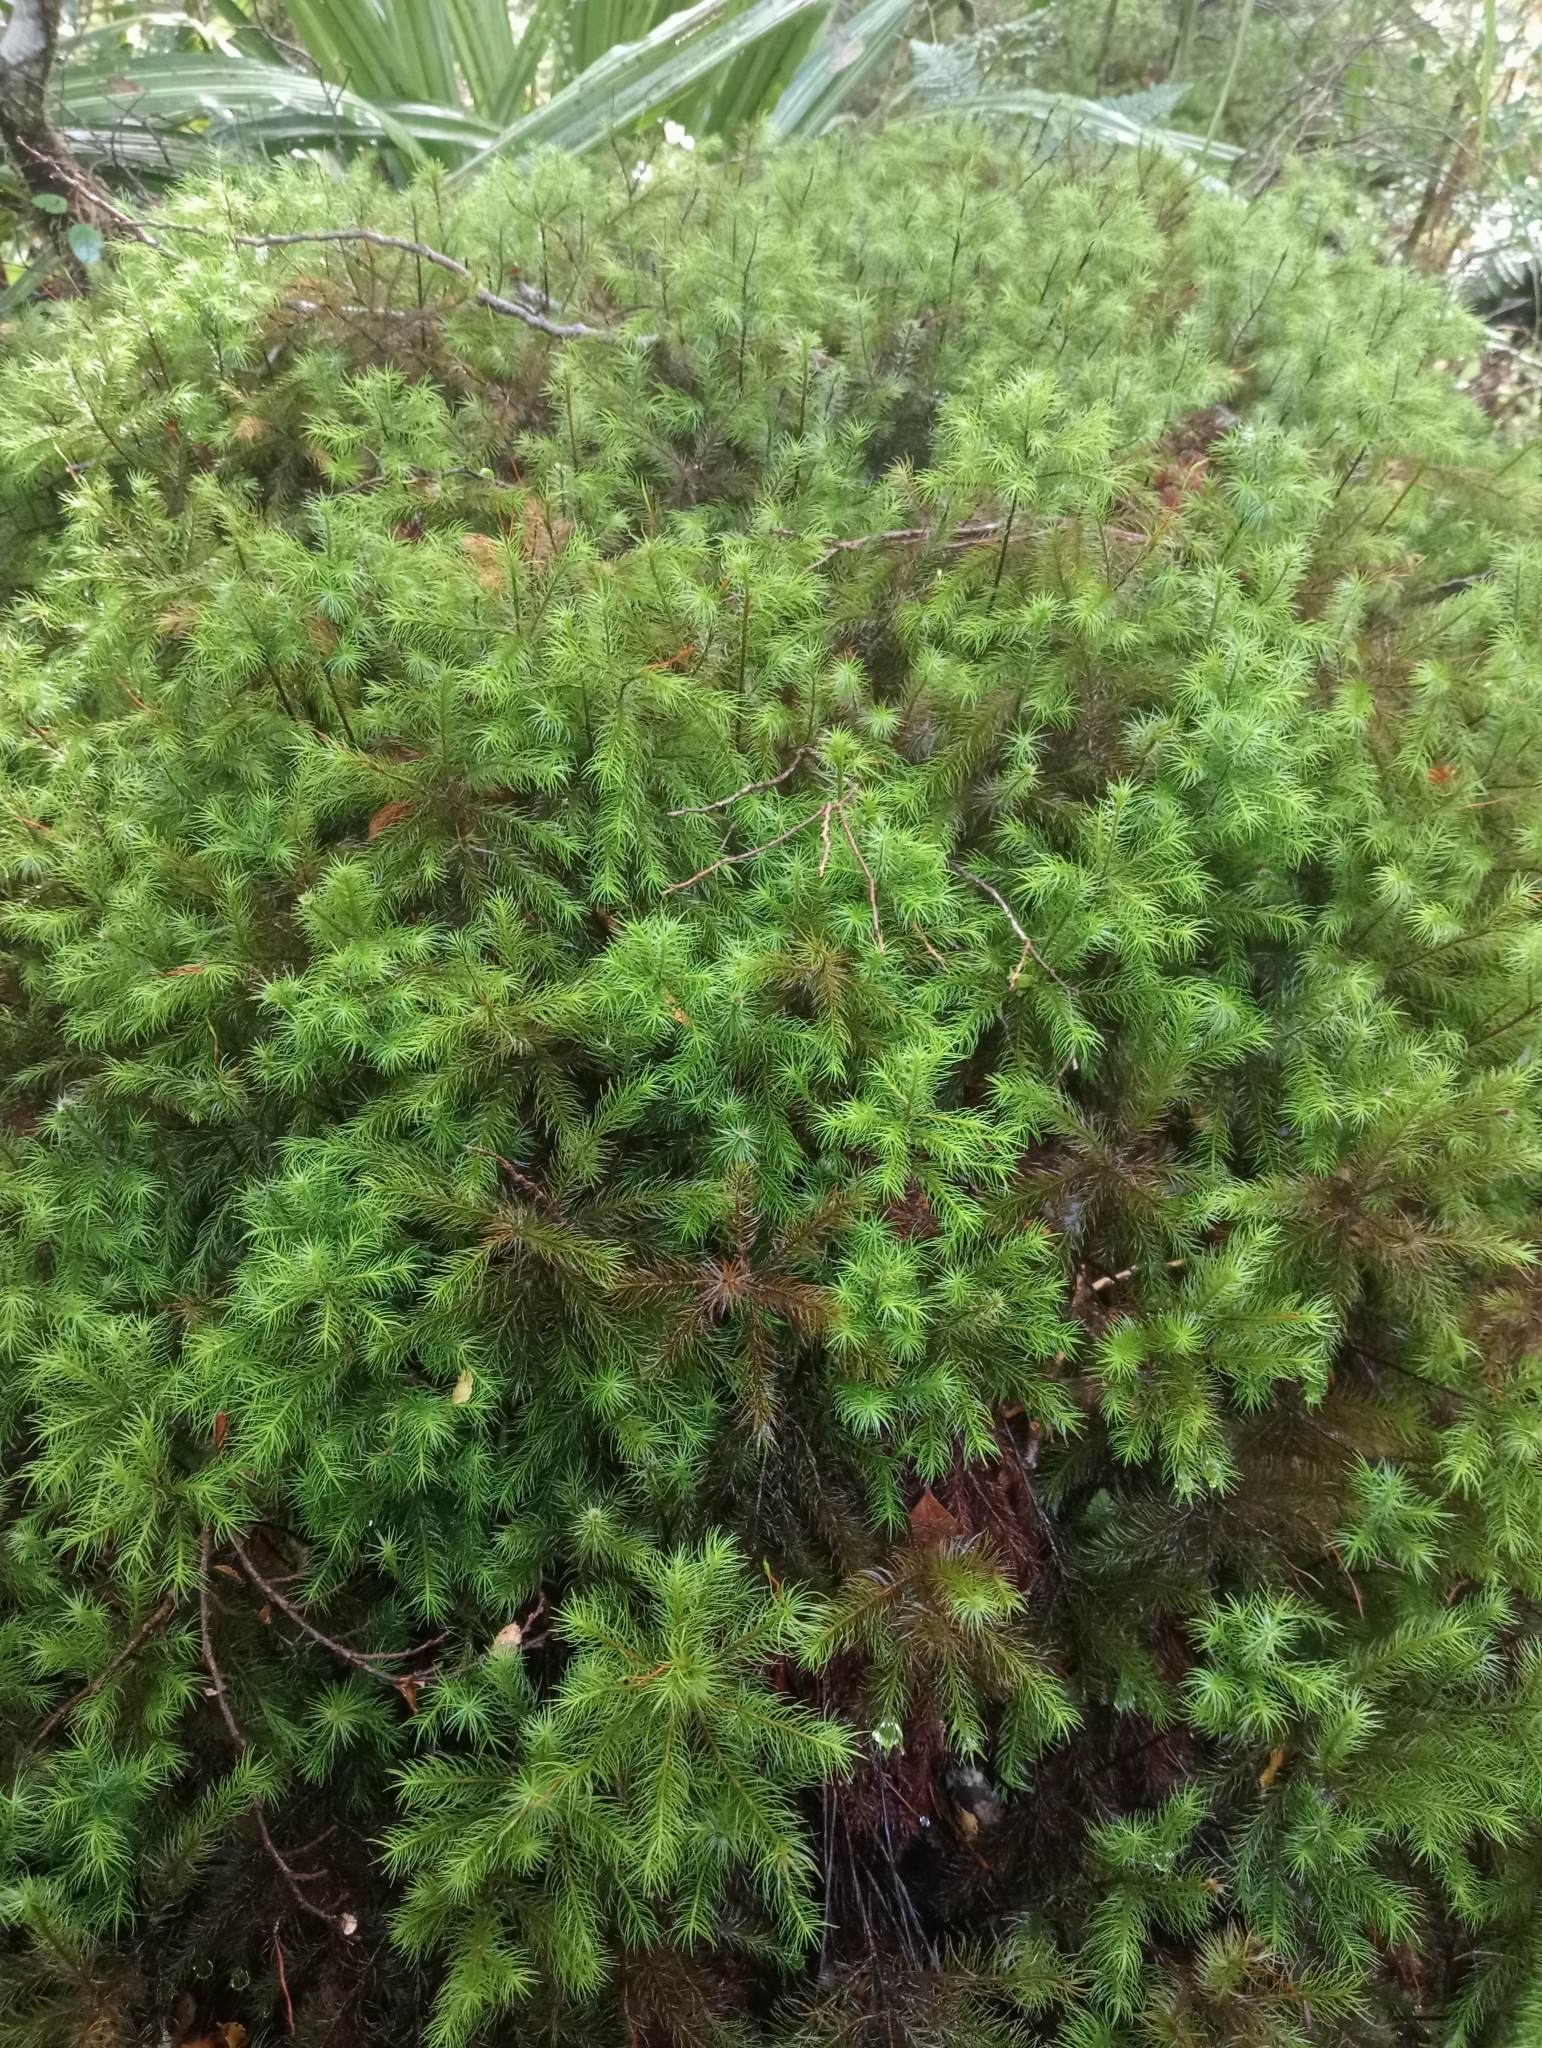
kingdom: Plantae
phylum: Bryophyta
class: Polytrichopsida
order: Polytrichales
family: Polytrichaceae
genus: Dendroligotrichum
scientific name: Dendroligotrichum tongariroense
